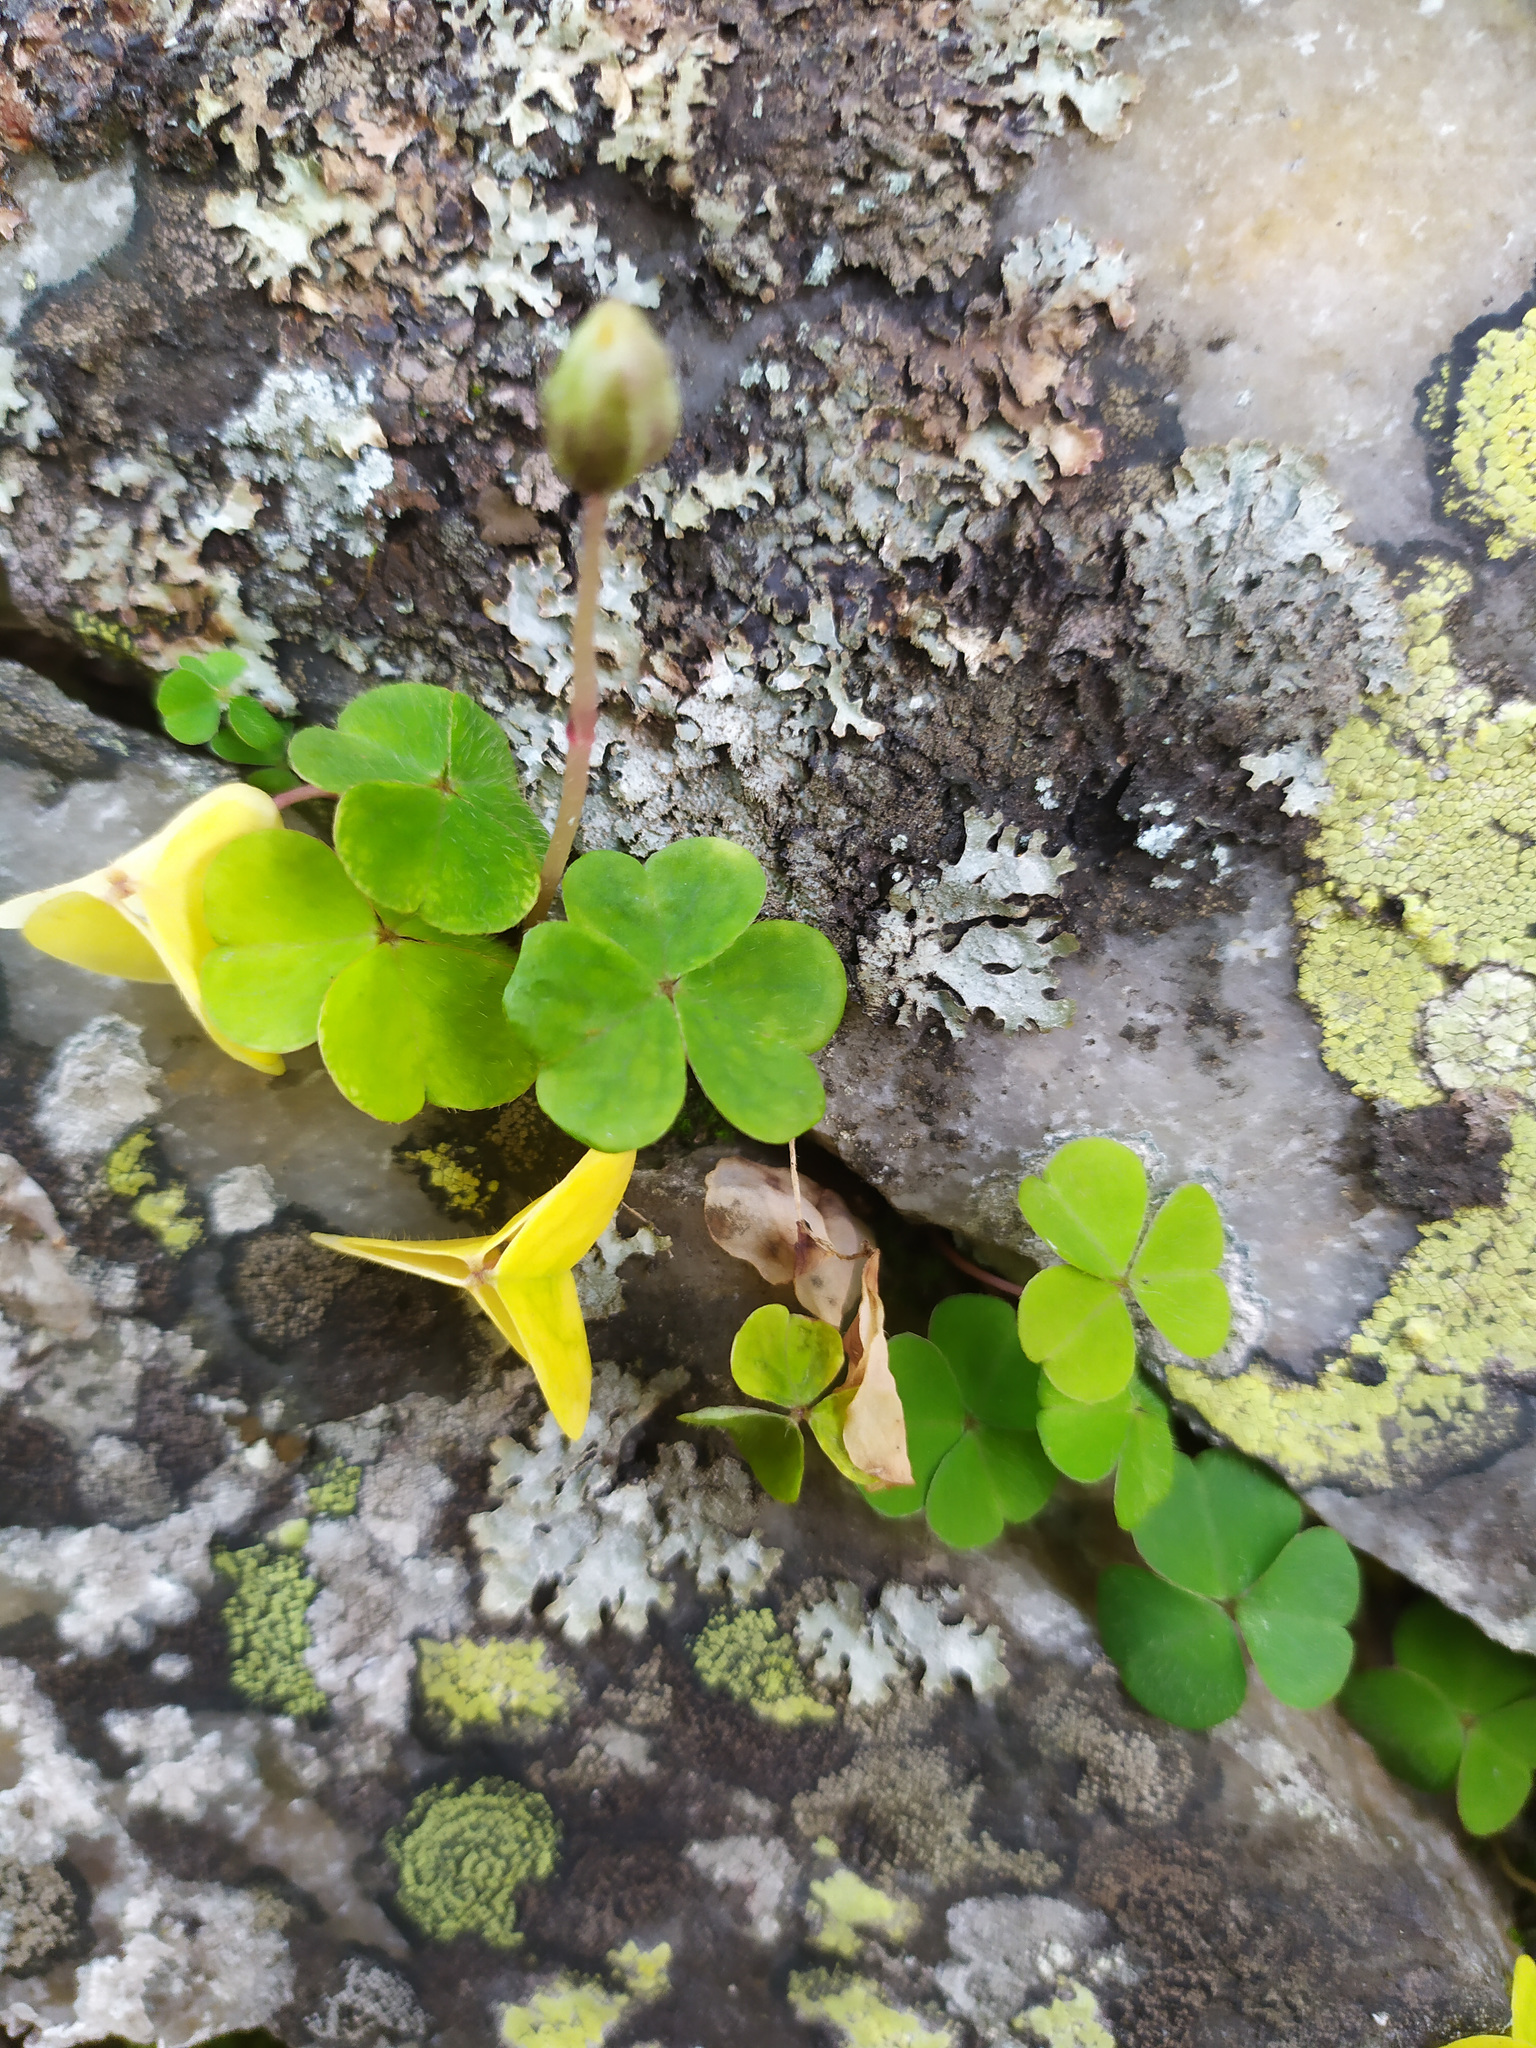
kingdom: Plantae
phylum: Tracheophyta
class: Magnoliopsida
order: Oxalidales
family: Oxalidaceae
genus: Oxalis
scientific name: Oxalis acetosella
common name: Wood-sorrel
